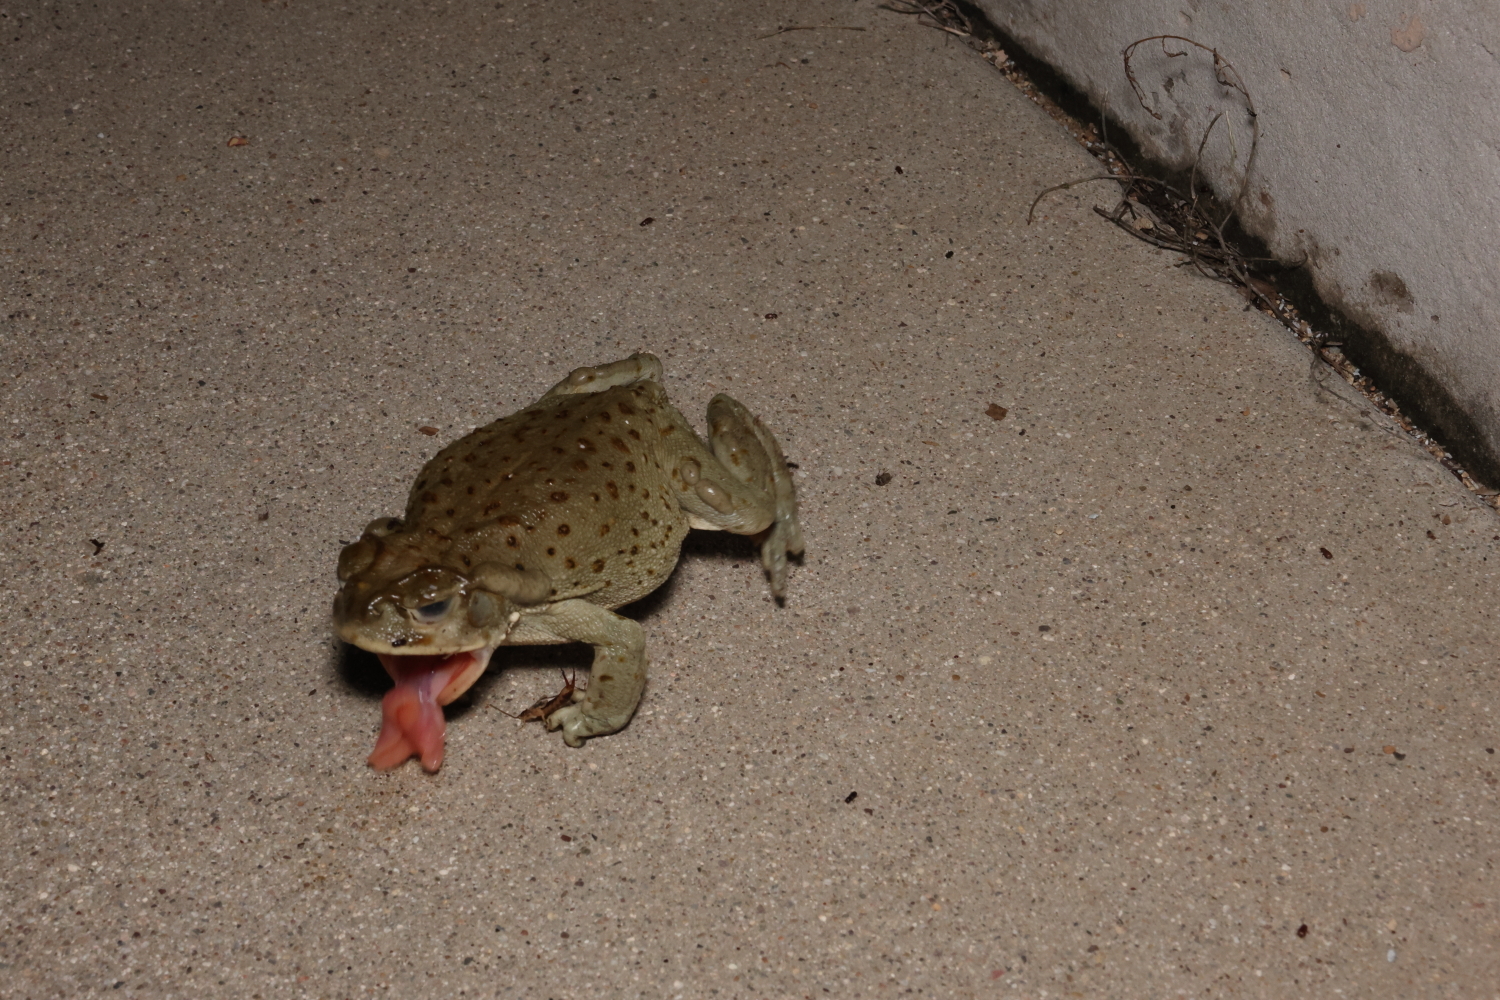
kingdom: Animalia
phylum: Chordata
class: Amphibia
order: Anura
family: Bufonidae
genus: Incilius
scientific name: Incilius alvarius
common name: Sonoran desert toad
